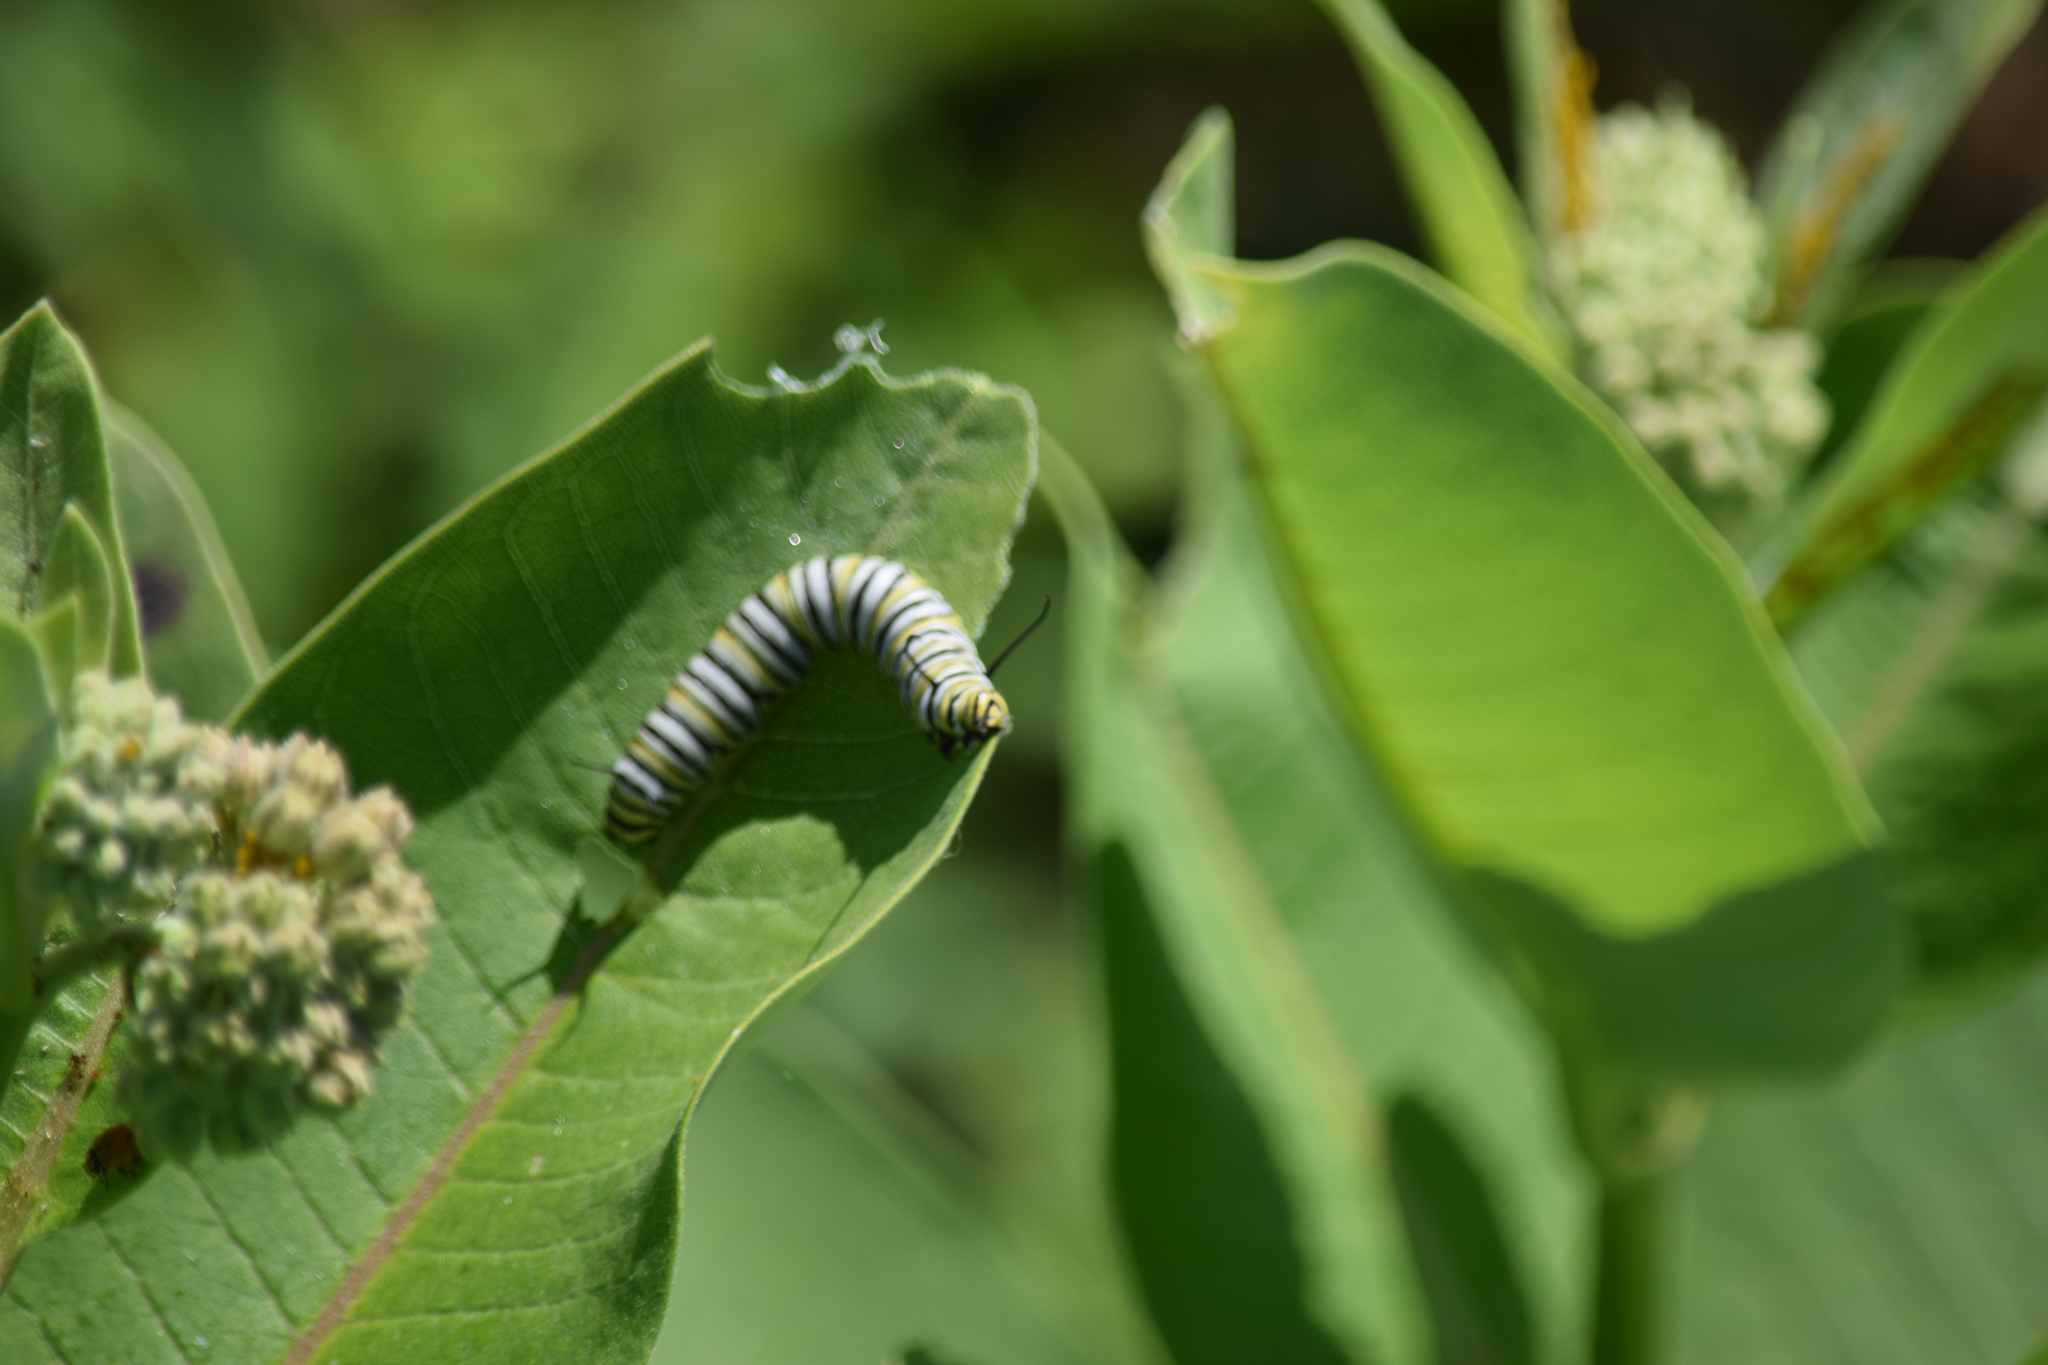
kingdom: Animalia
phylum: Arthropoda
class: Insecta
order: Lepidoptera
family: Nymphalidae
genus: Danaus
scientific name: Danaus plexippus
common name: Monarch
